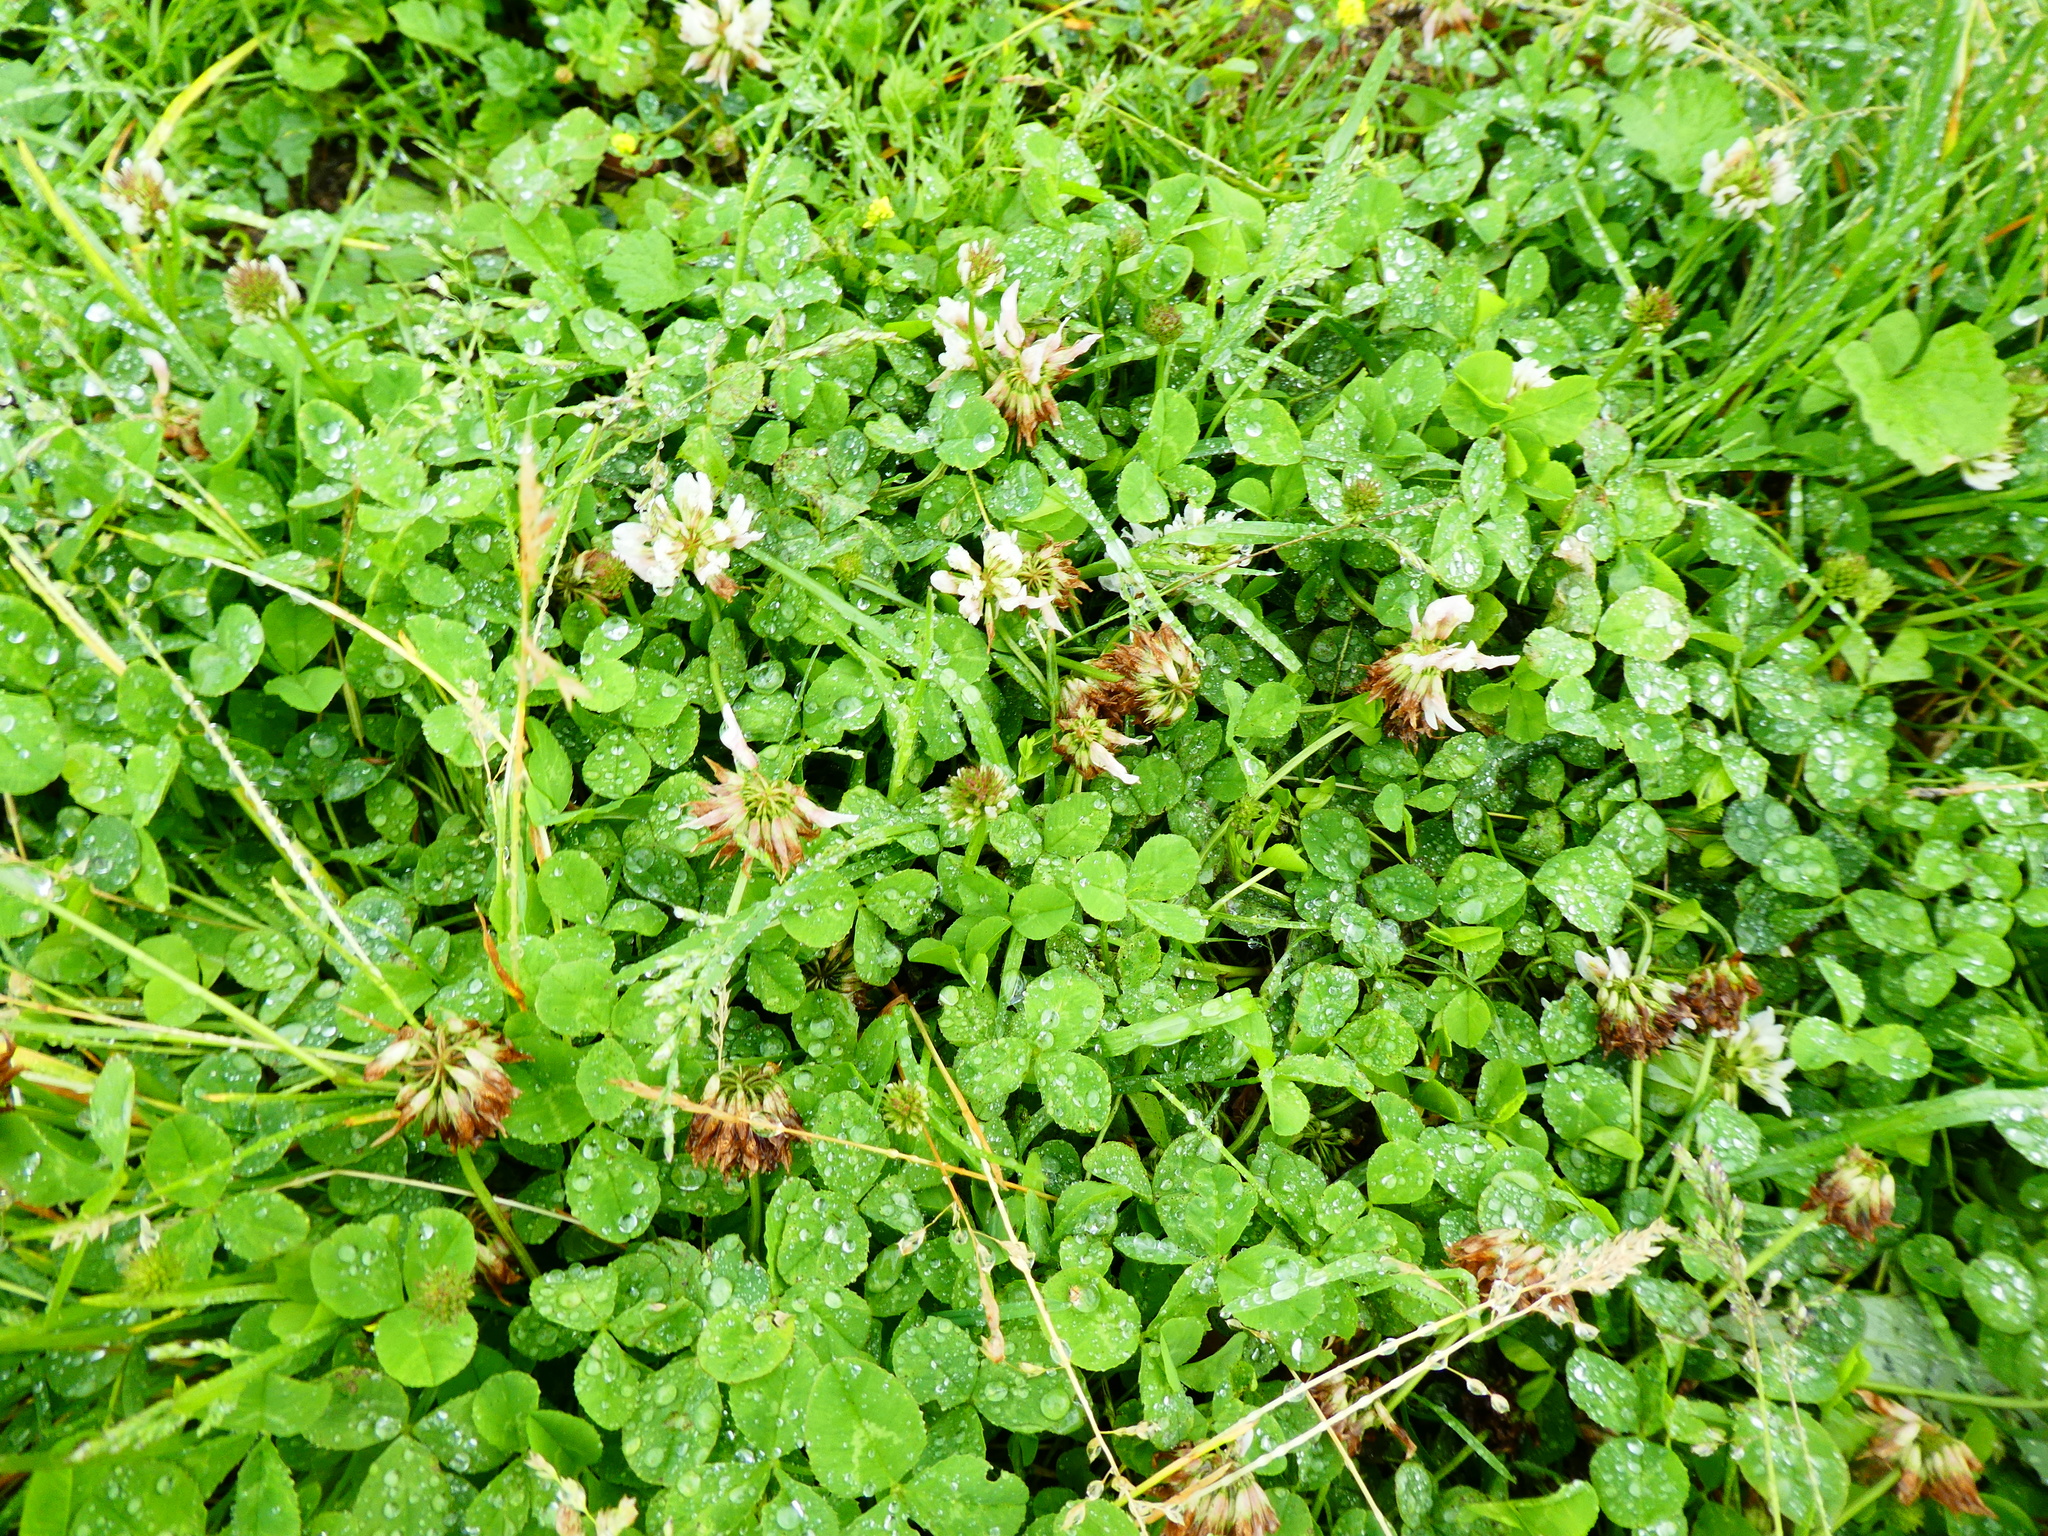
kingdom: Plantae
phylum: Tracheophyta
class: Magnoliopsida
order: Fabales
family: Fabaceae
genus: Trifolium
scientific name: Trifolium repens
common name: White clover
